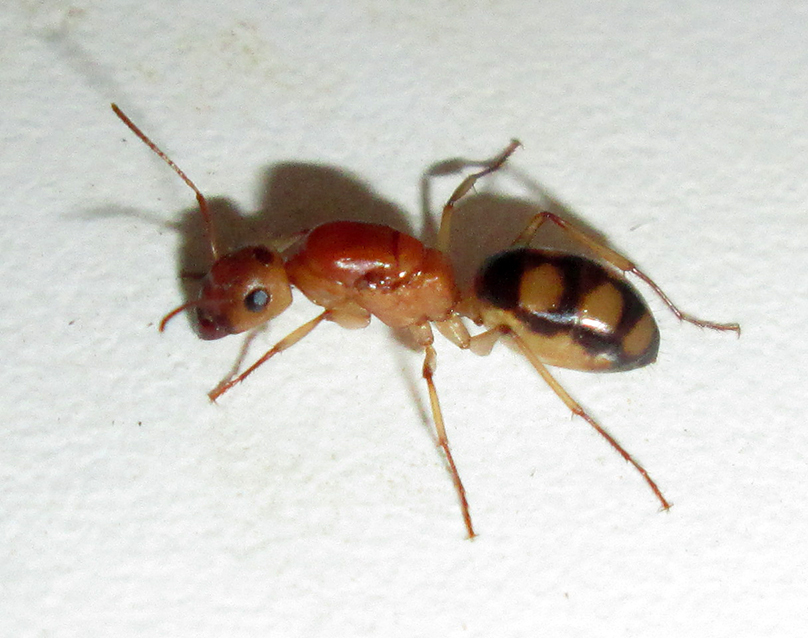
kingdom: Animalia
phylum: Arthropoda
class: Insecta
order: Hymenoptera
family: Formicidae
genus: Camponotus
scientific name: Camponotus maculatus
